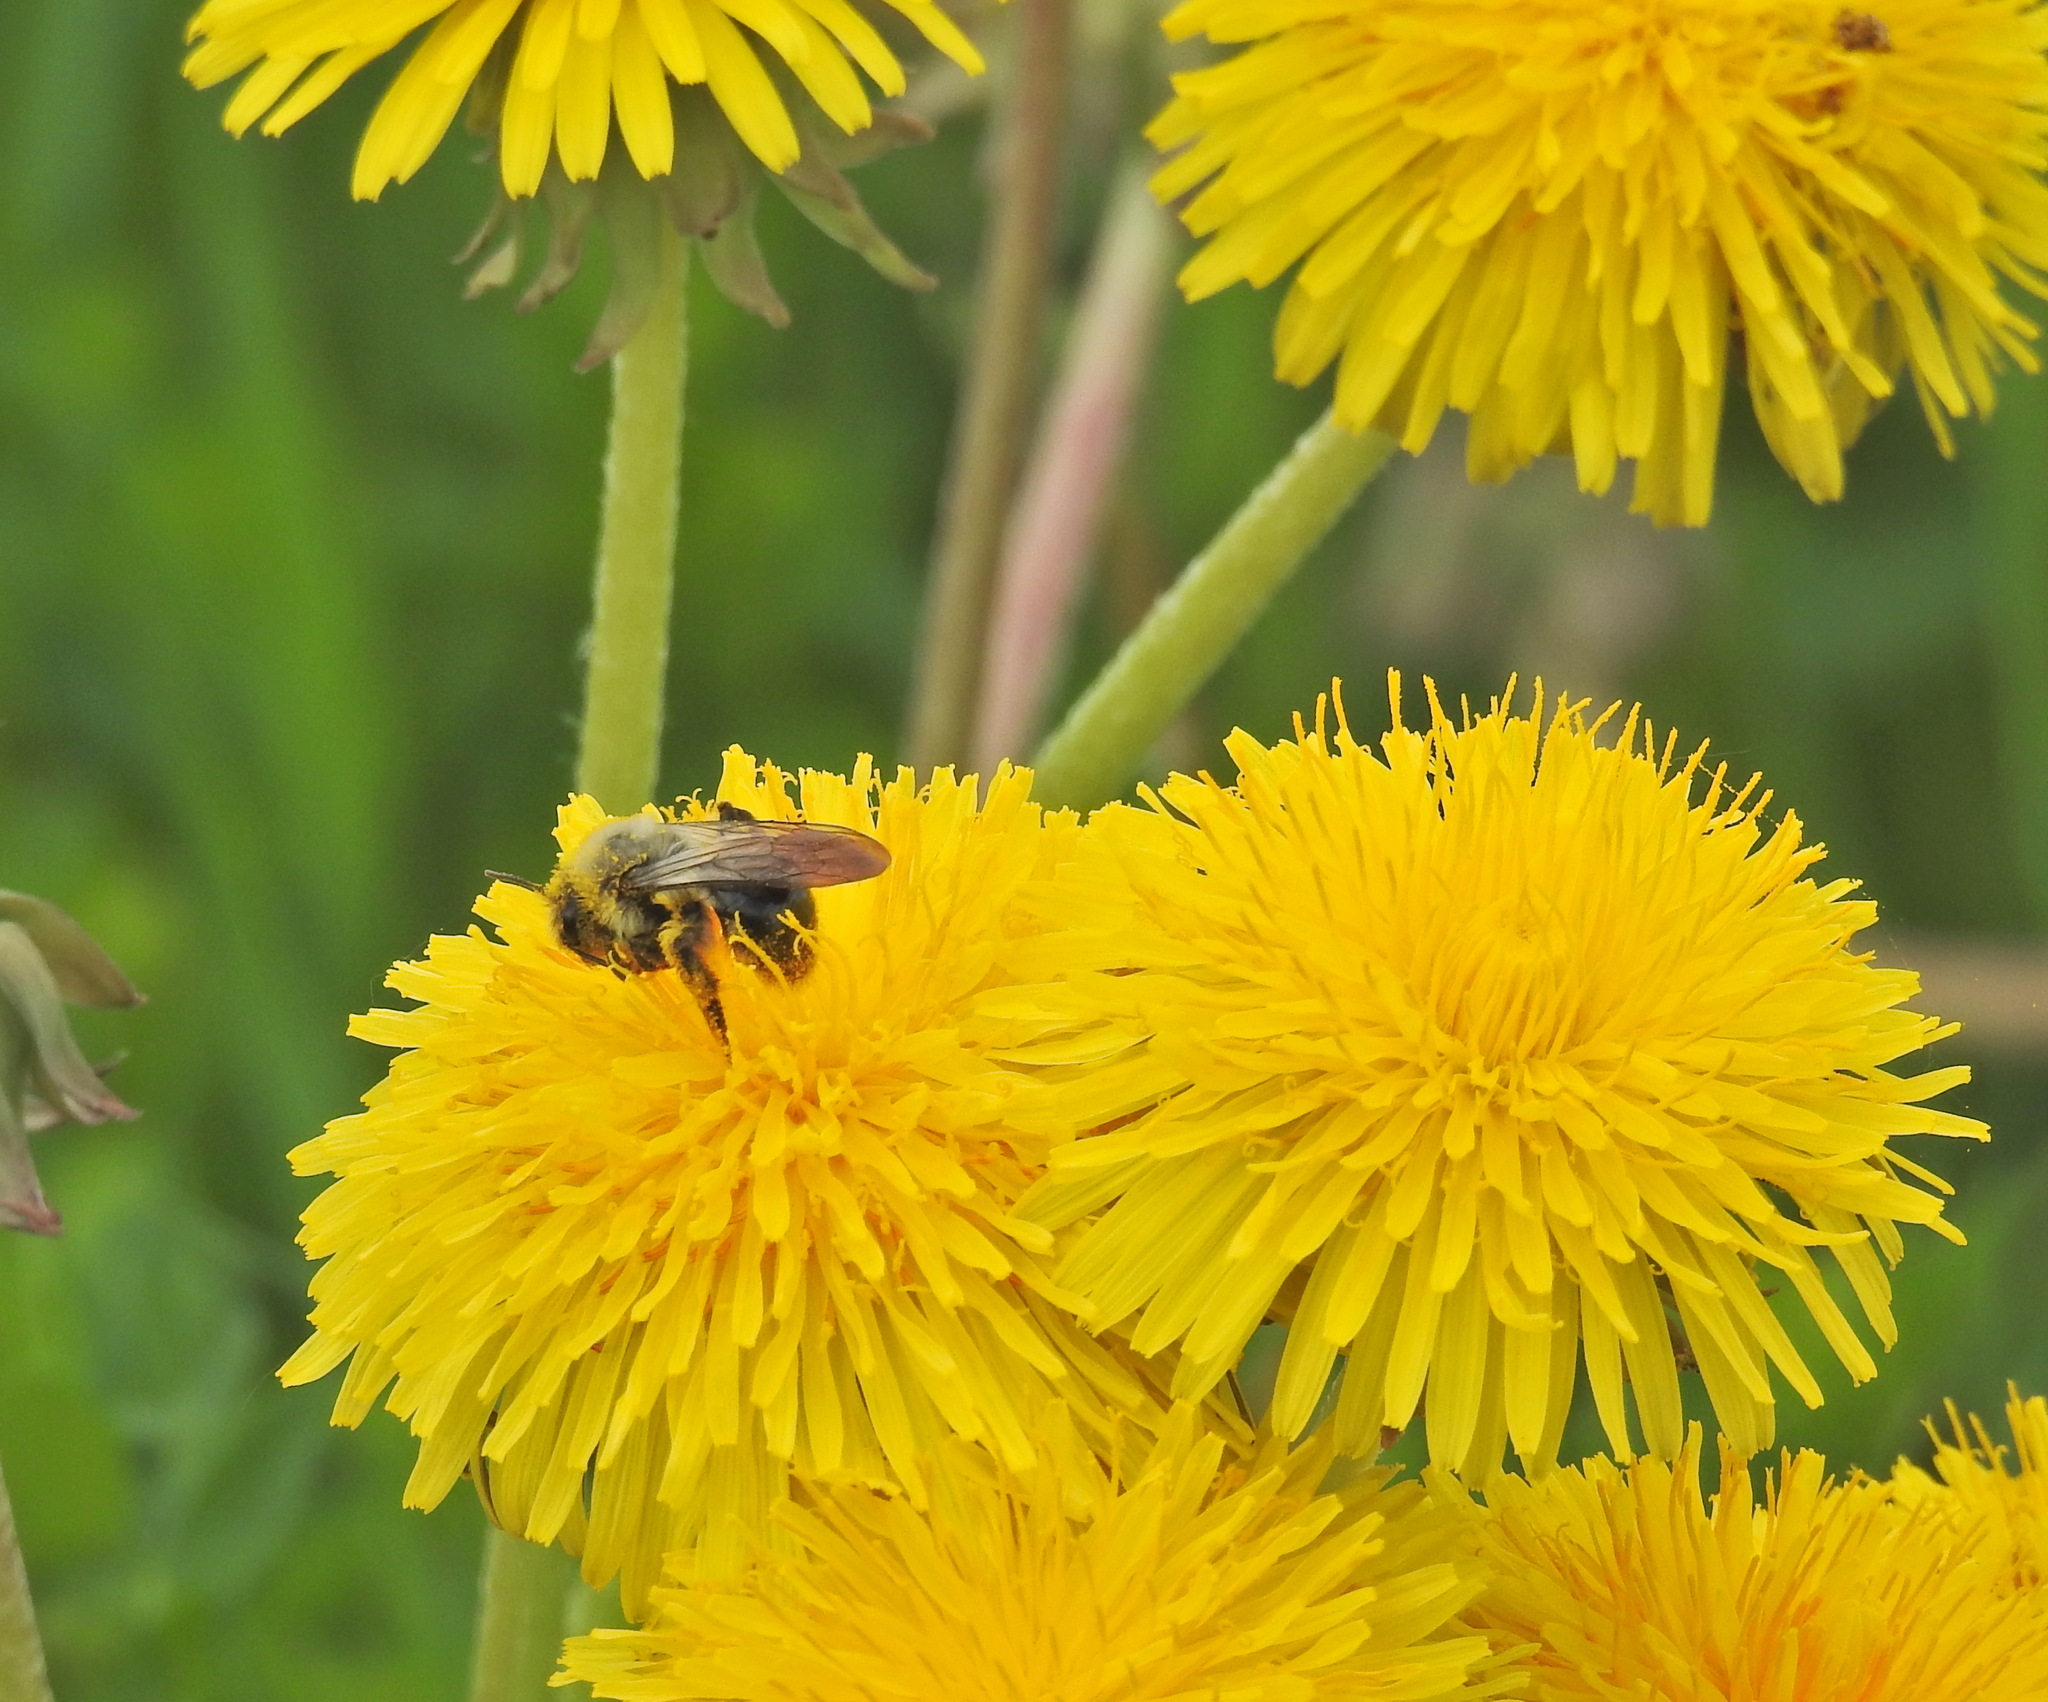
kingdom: Animalia
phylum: Arthropoda
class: Insecta
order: Hymenoptera
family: Andrenidae
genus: Andrena
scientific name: Andrena vaga
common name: Grey-backed mining bee
